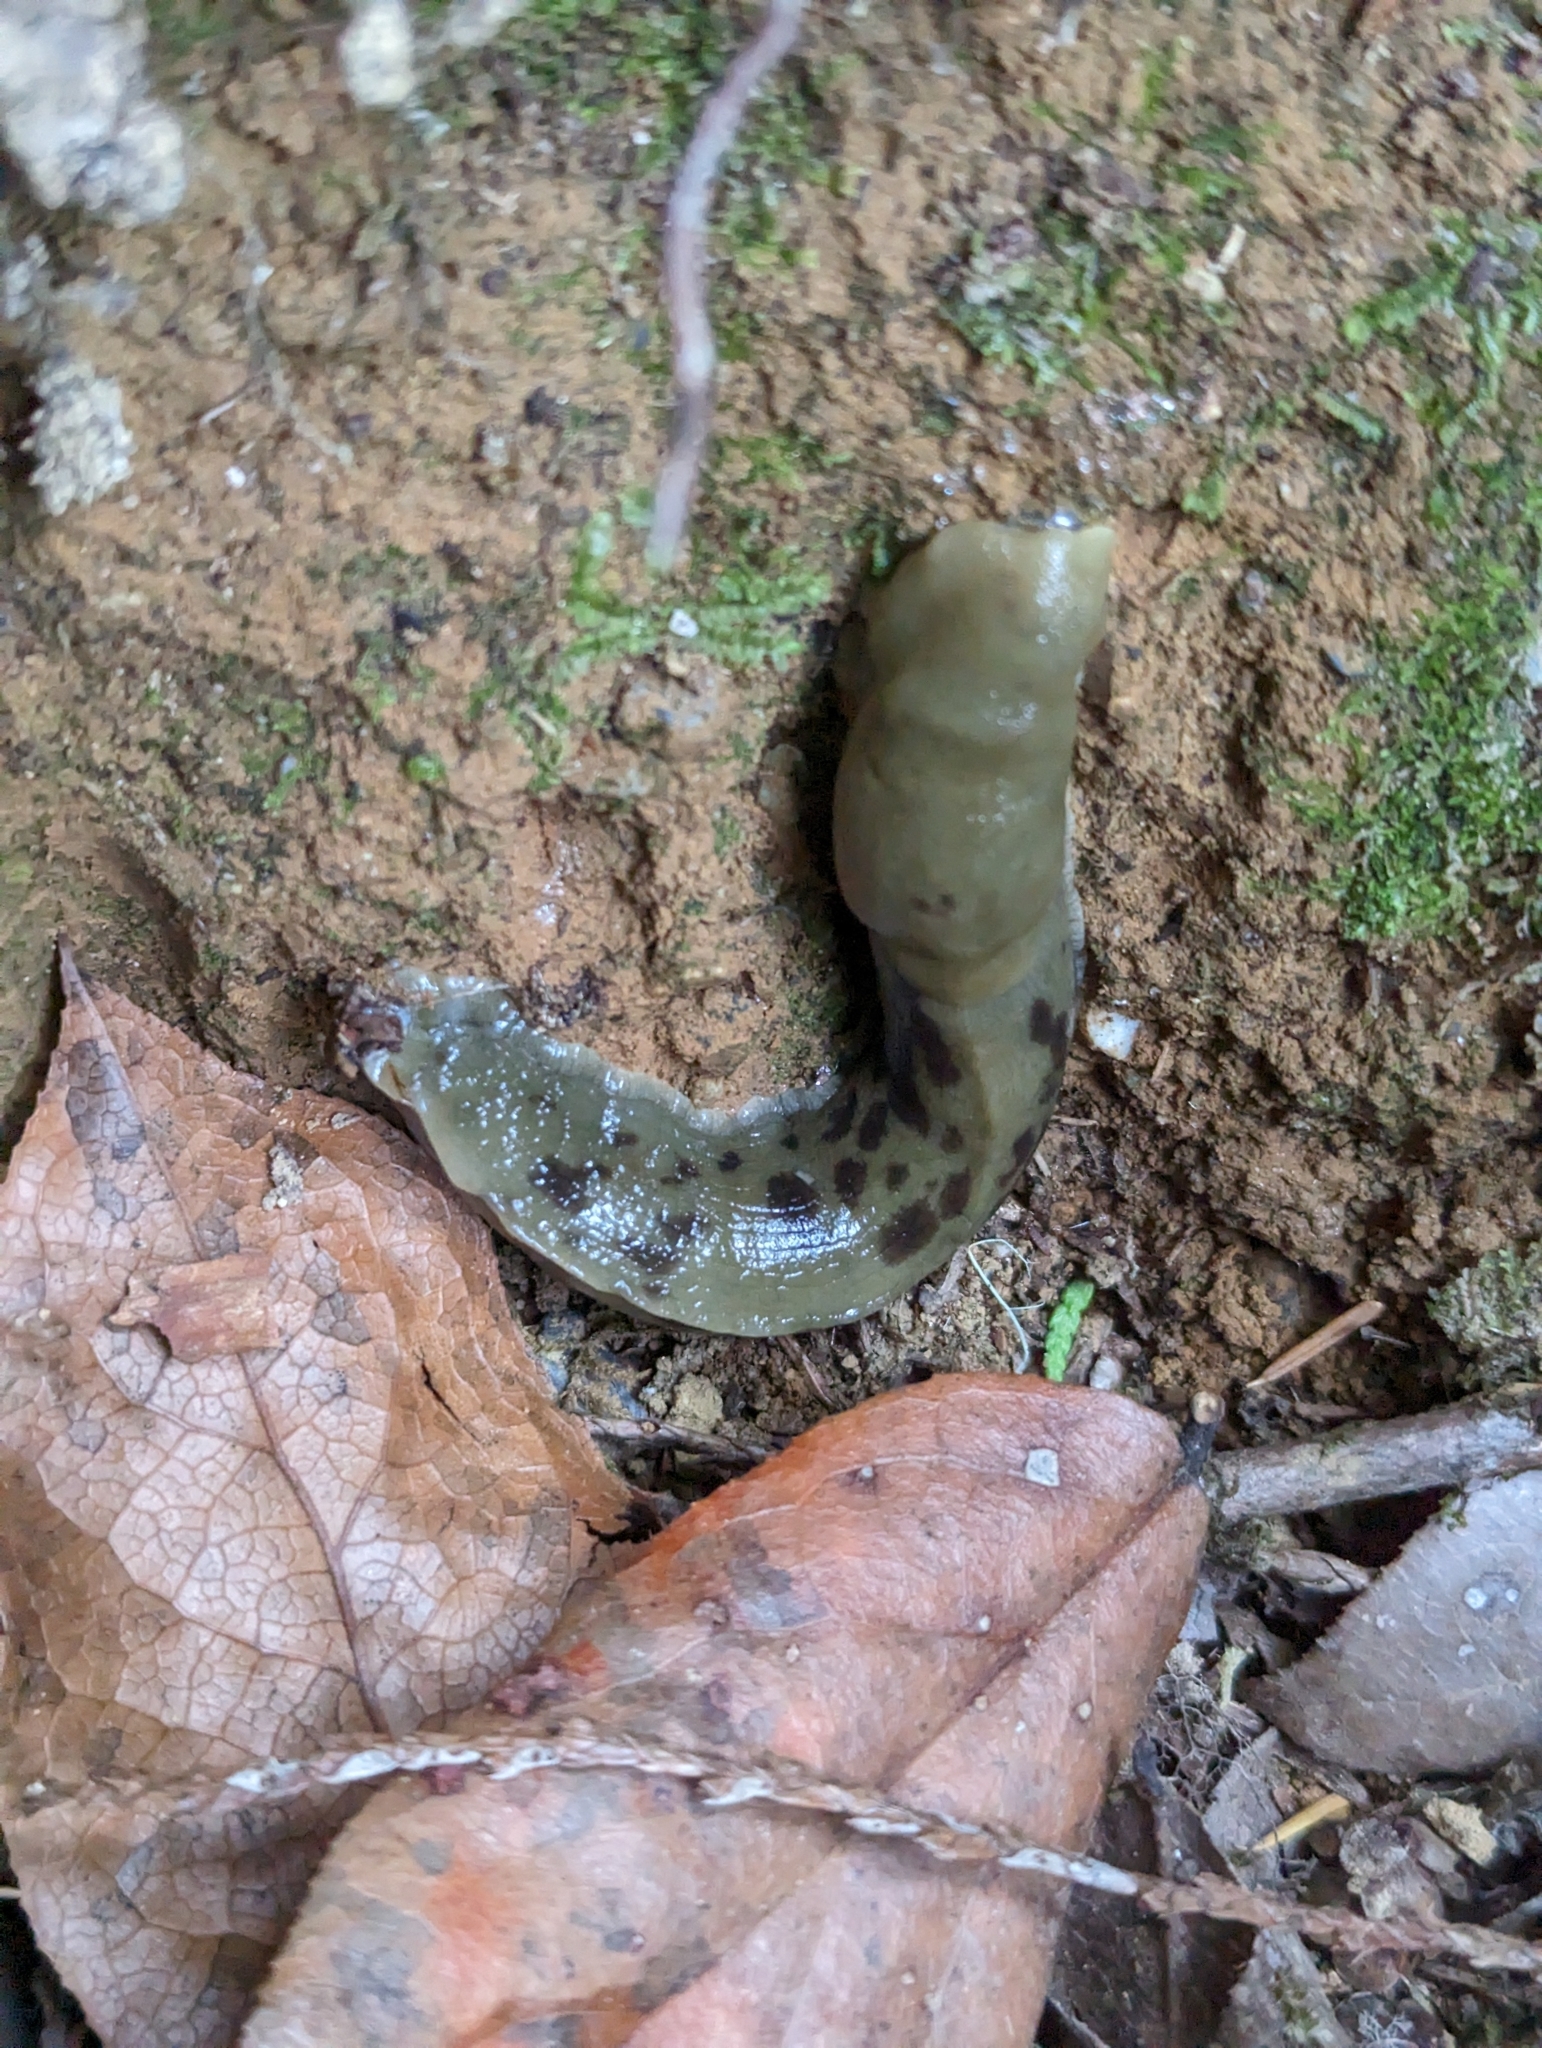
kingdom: Animalia
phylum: Mollusca
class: Gastropoda
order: Stylommatophora
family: Ariolimacidae
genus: Ariolimax
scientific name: Ariolimax columbianus
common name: Pacific banana slug
